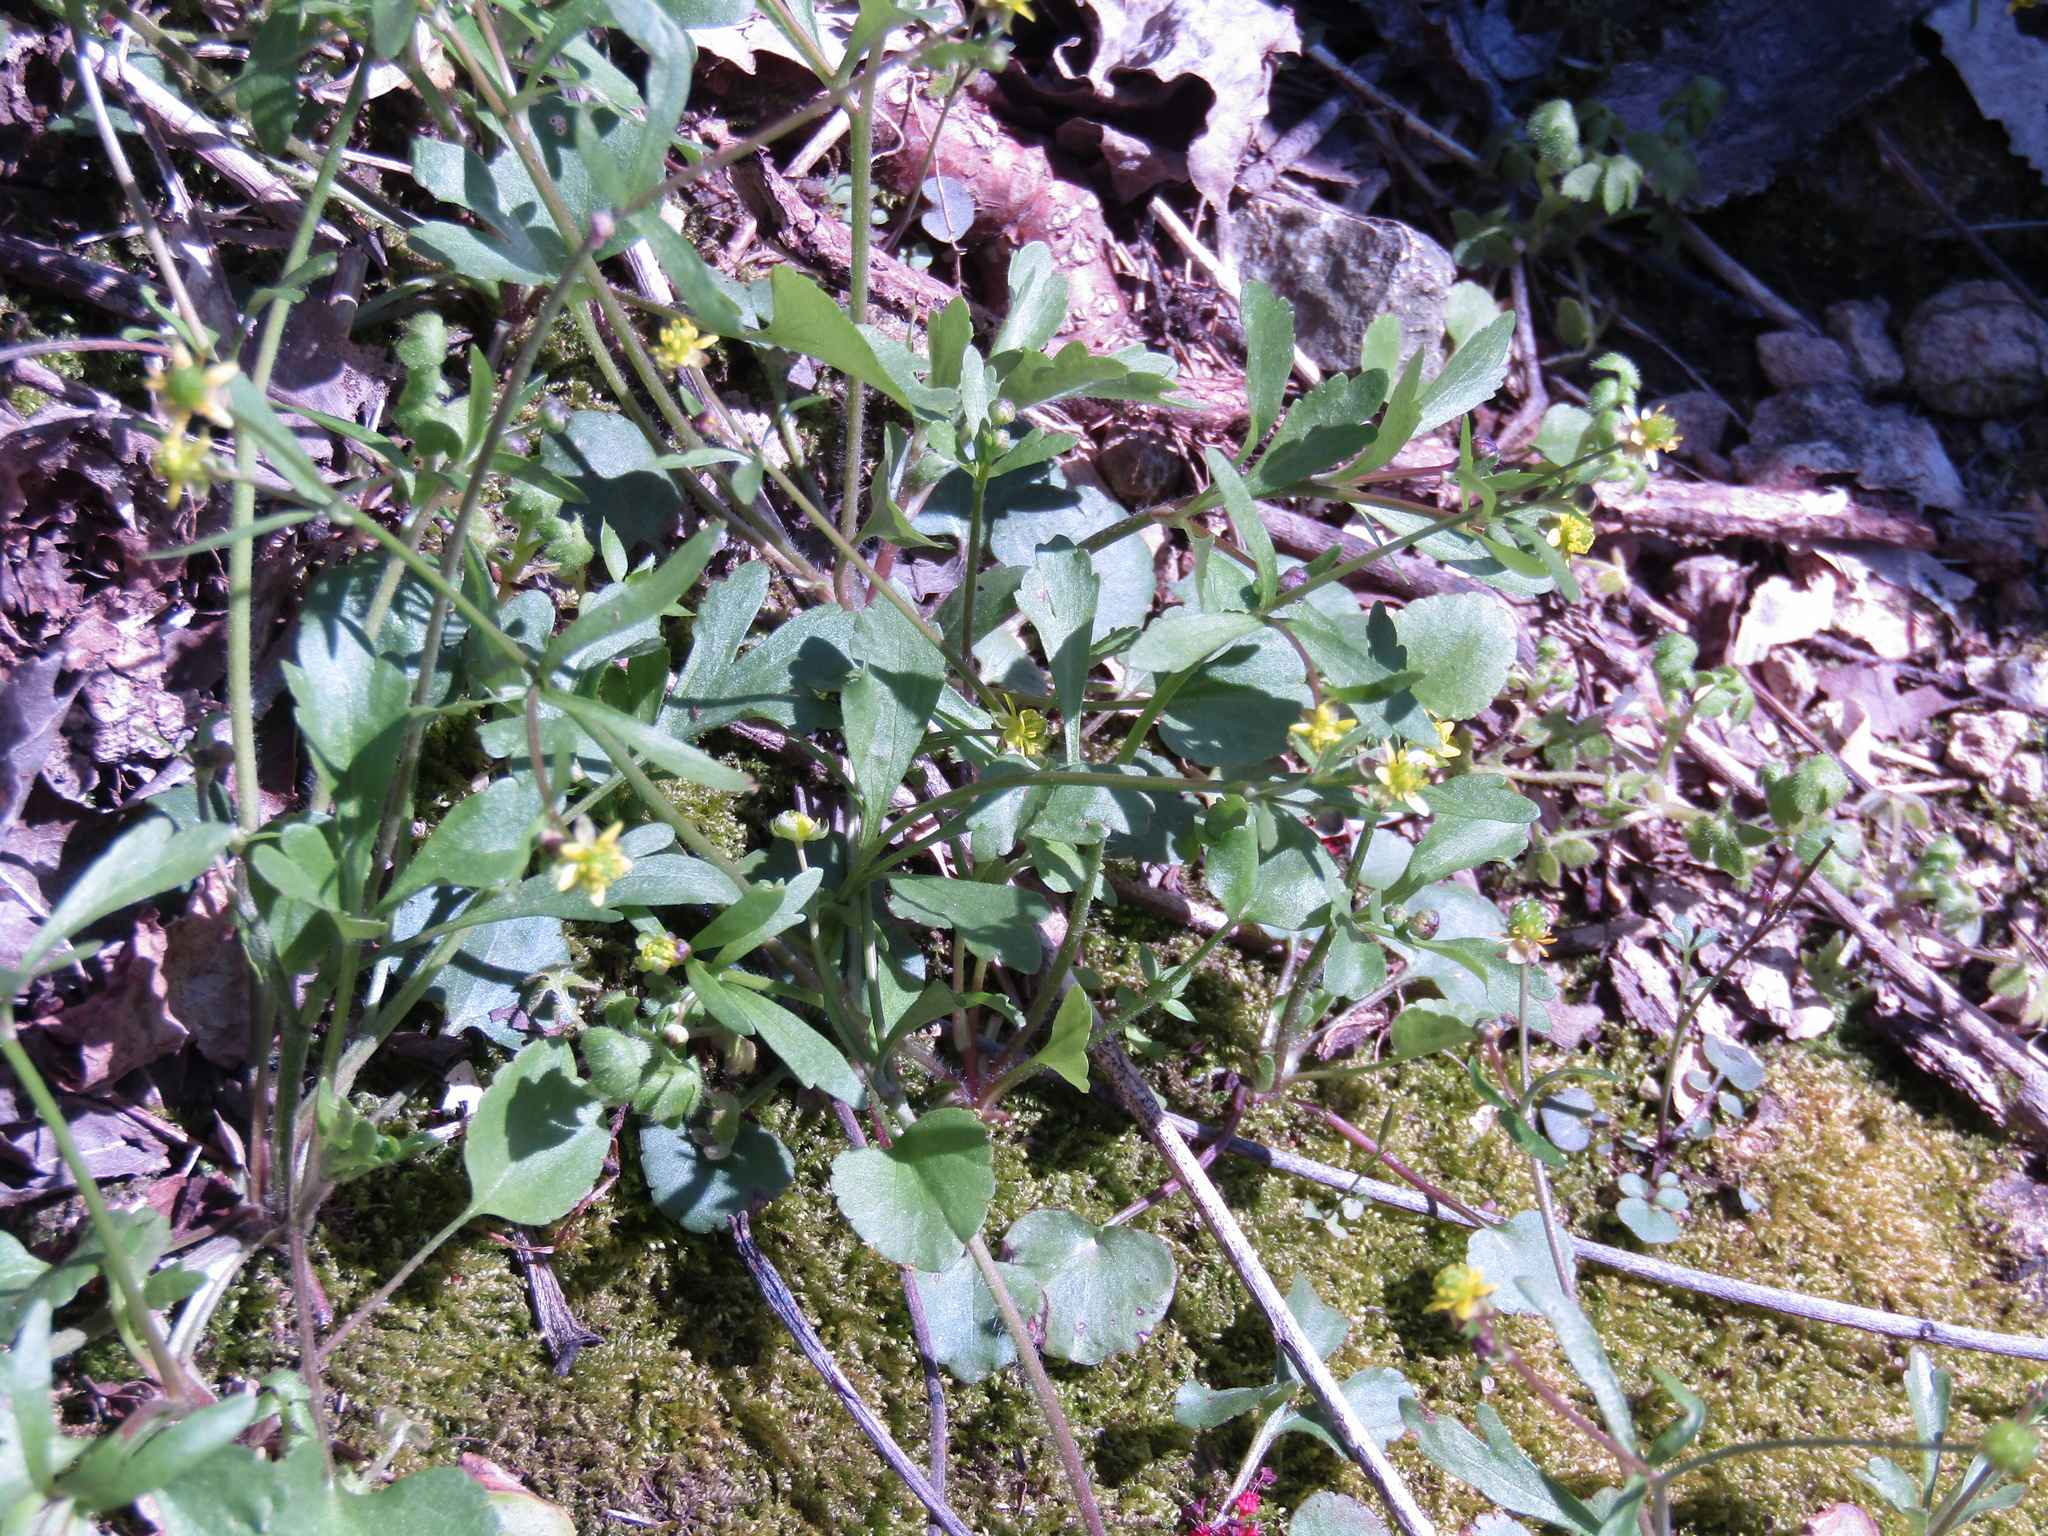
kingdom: Plantae
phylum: Tracheophyta
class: Magnoliopsida
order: Ranunculales
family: Ranunculaceae
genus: Ranunculus
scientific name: Ranunculus micranthus
